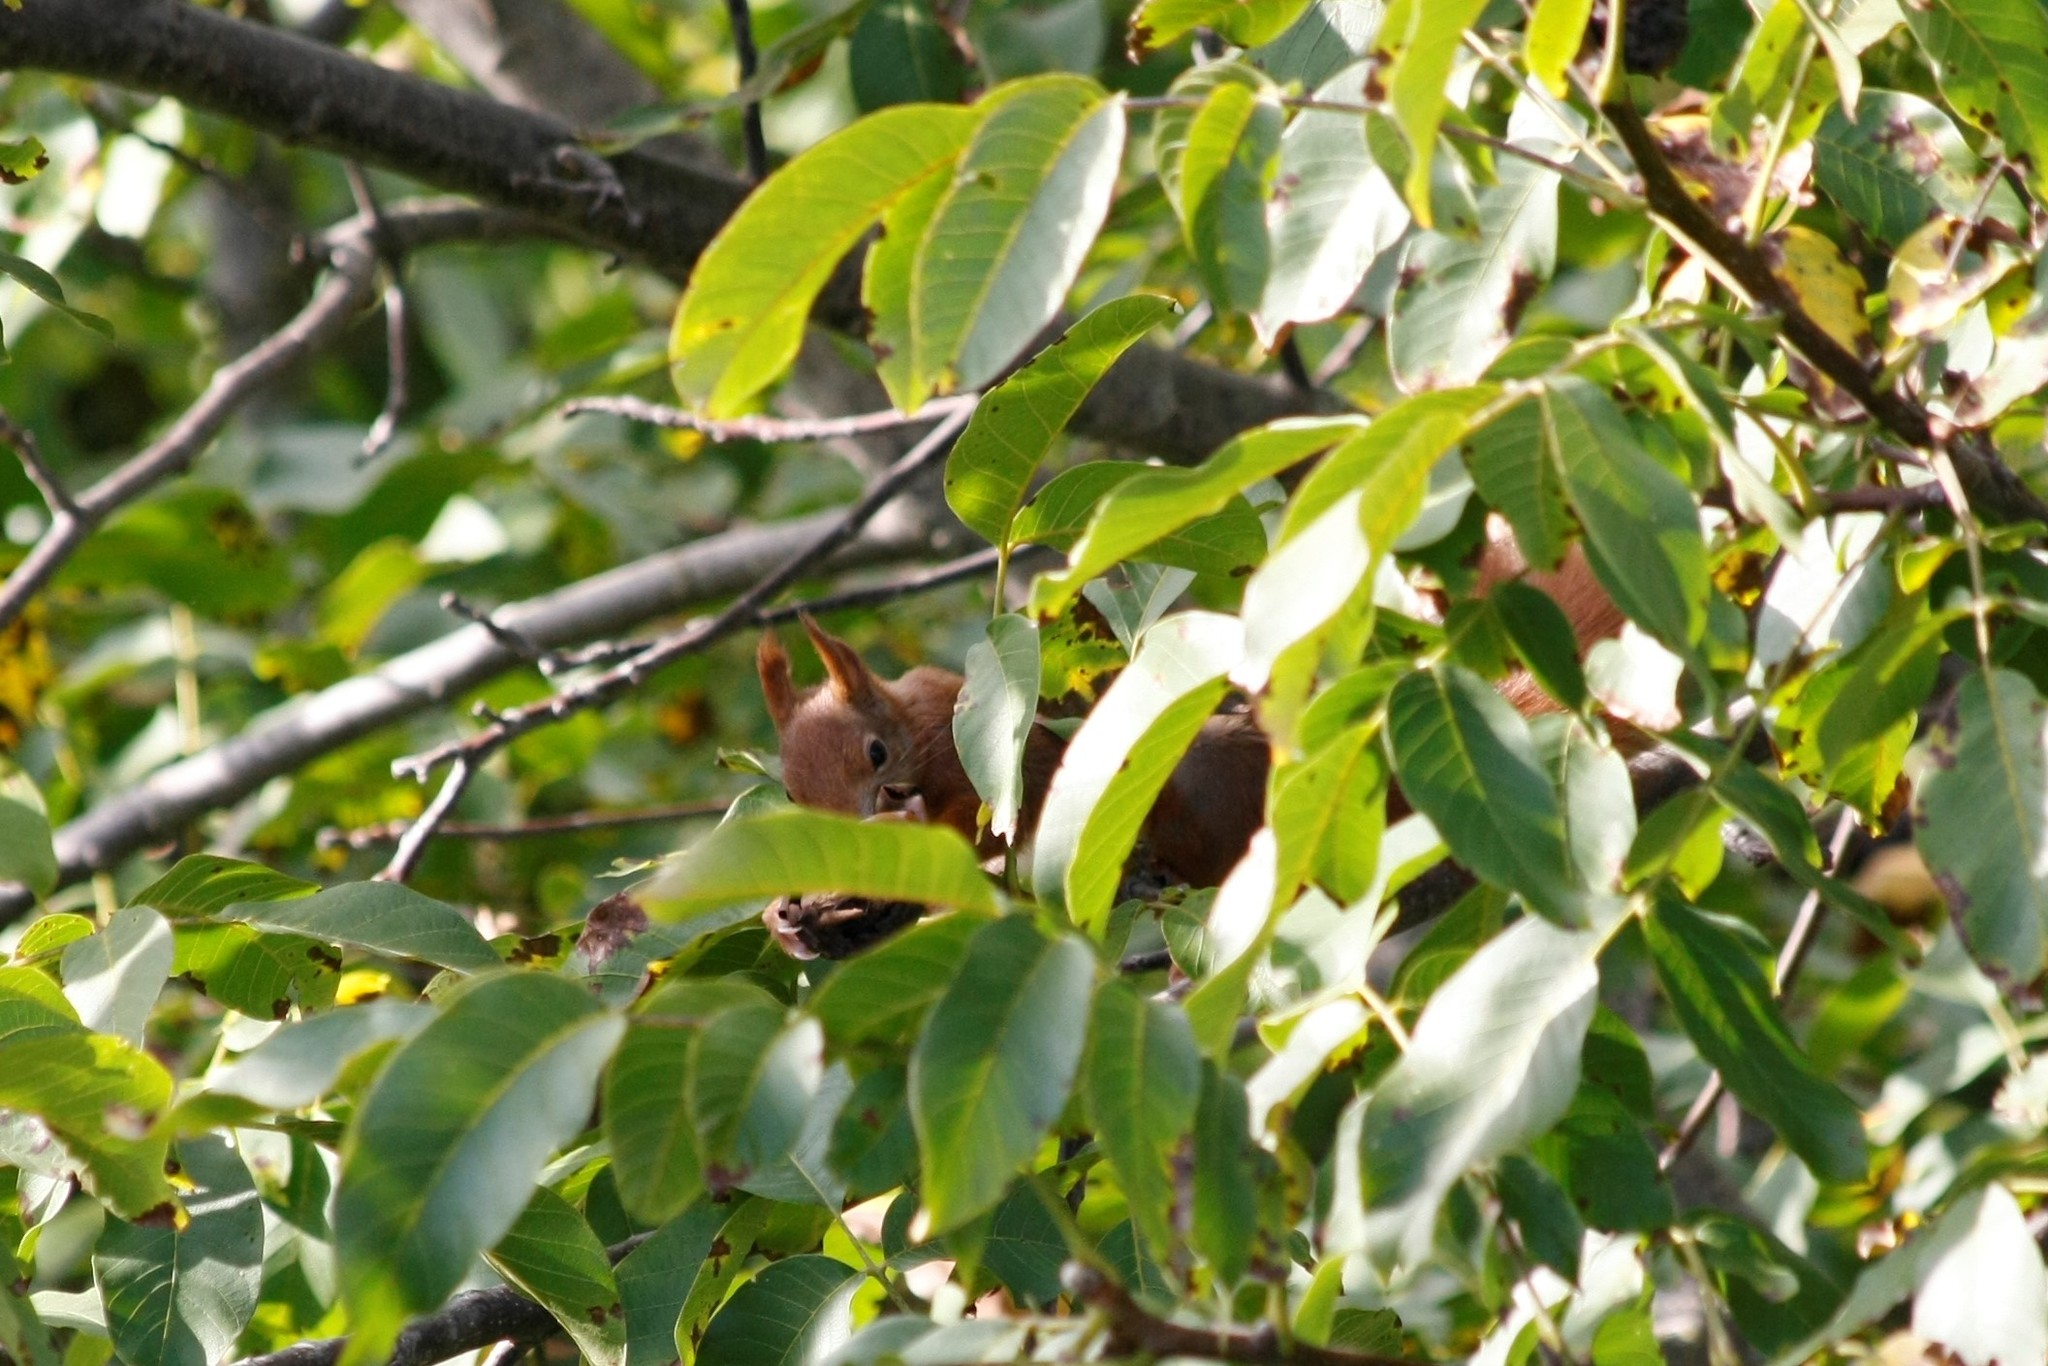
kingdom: Animalia
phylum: Chordata
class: Mammalia
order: Rodentia
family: Sciuridae
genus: Sciurus
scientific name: Sciurus vulgaris
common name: Eurasian red squirrel
